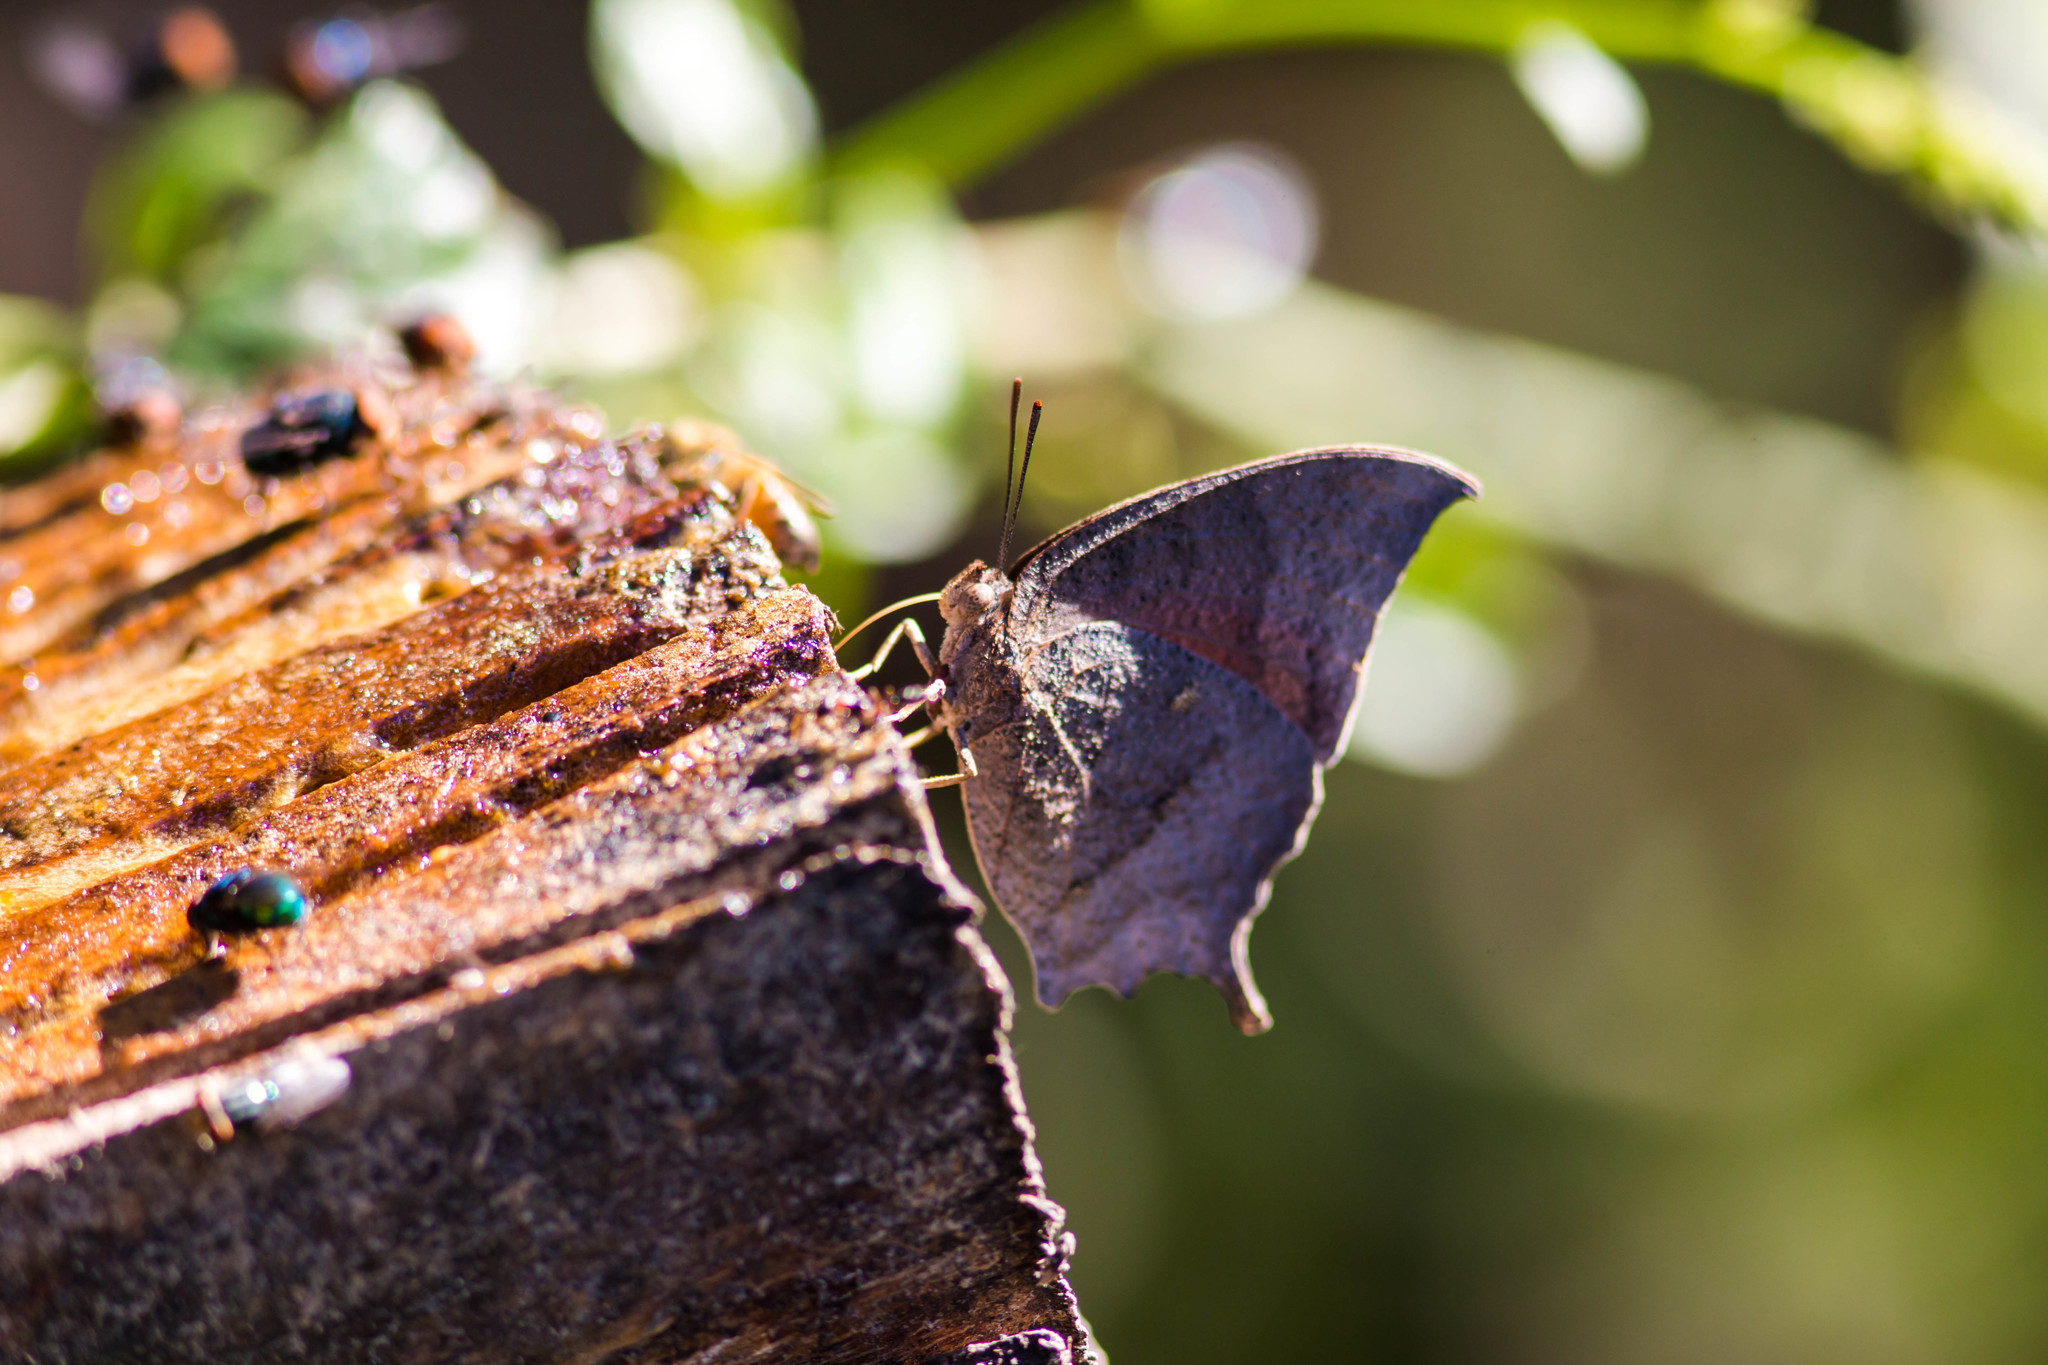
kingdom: Animalia
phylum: Arthropoda
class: Insecta
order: Lepidoptera
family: Nymphalidae
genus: Anaea
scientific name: Anaea aidea
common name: Tropical leafwing
